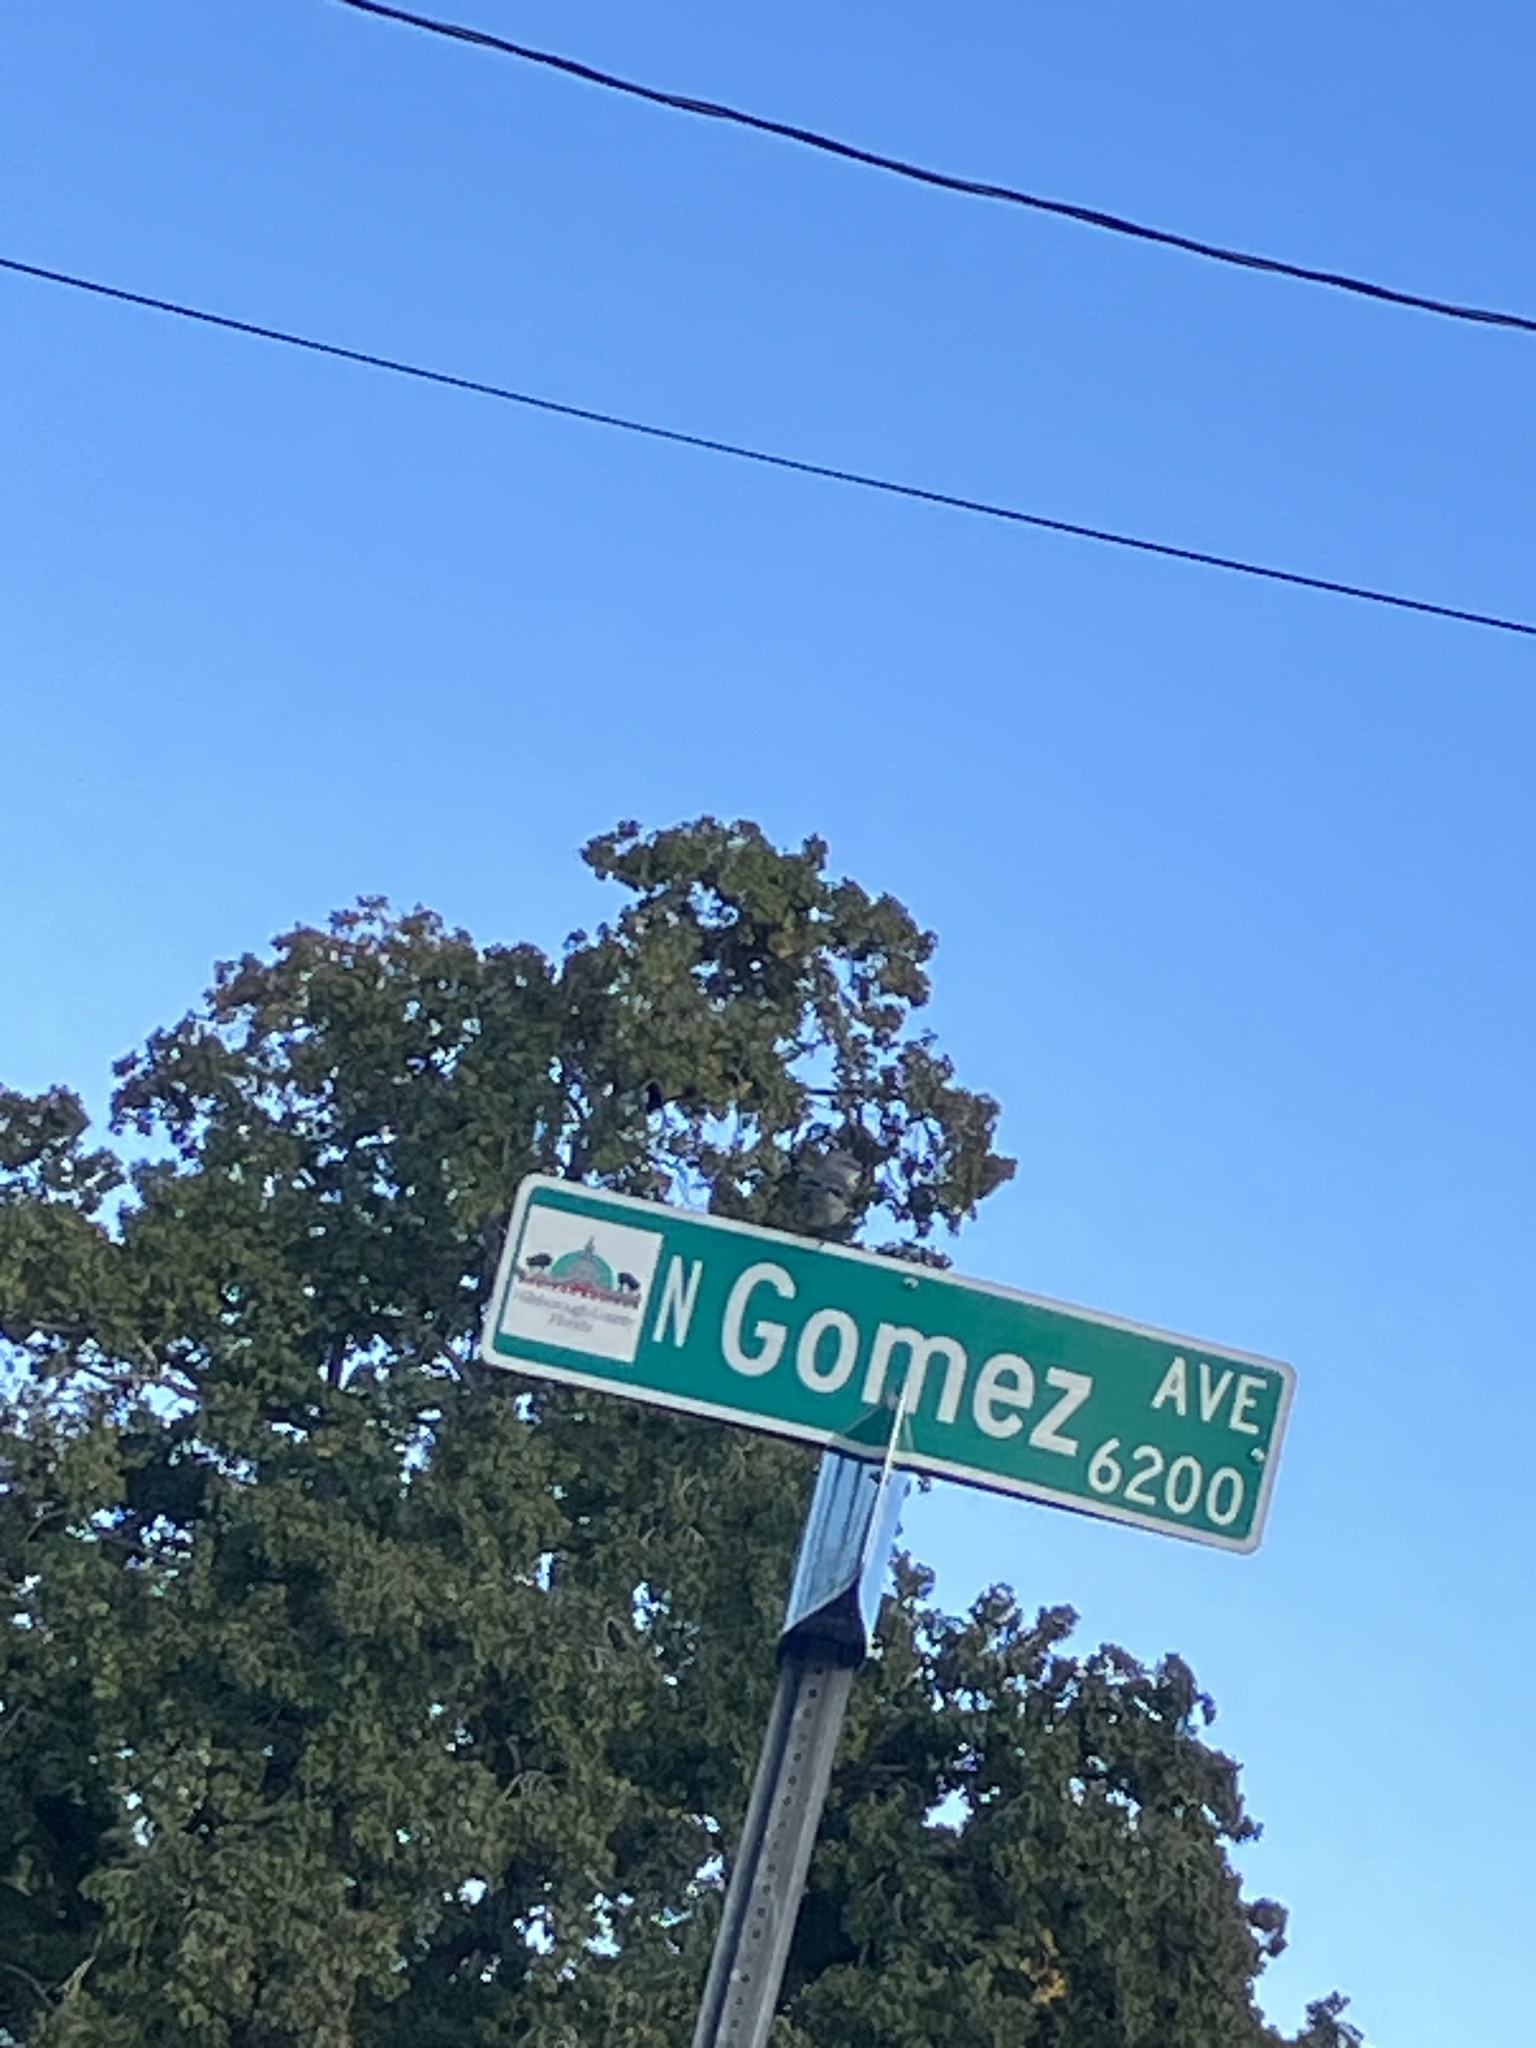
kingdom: Animalia
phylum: Chordata
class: Aves
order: Passeriformes
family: Mimidae
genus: Mimus
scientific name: Mimus polyglottos
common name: Northern mockingbird
